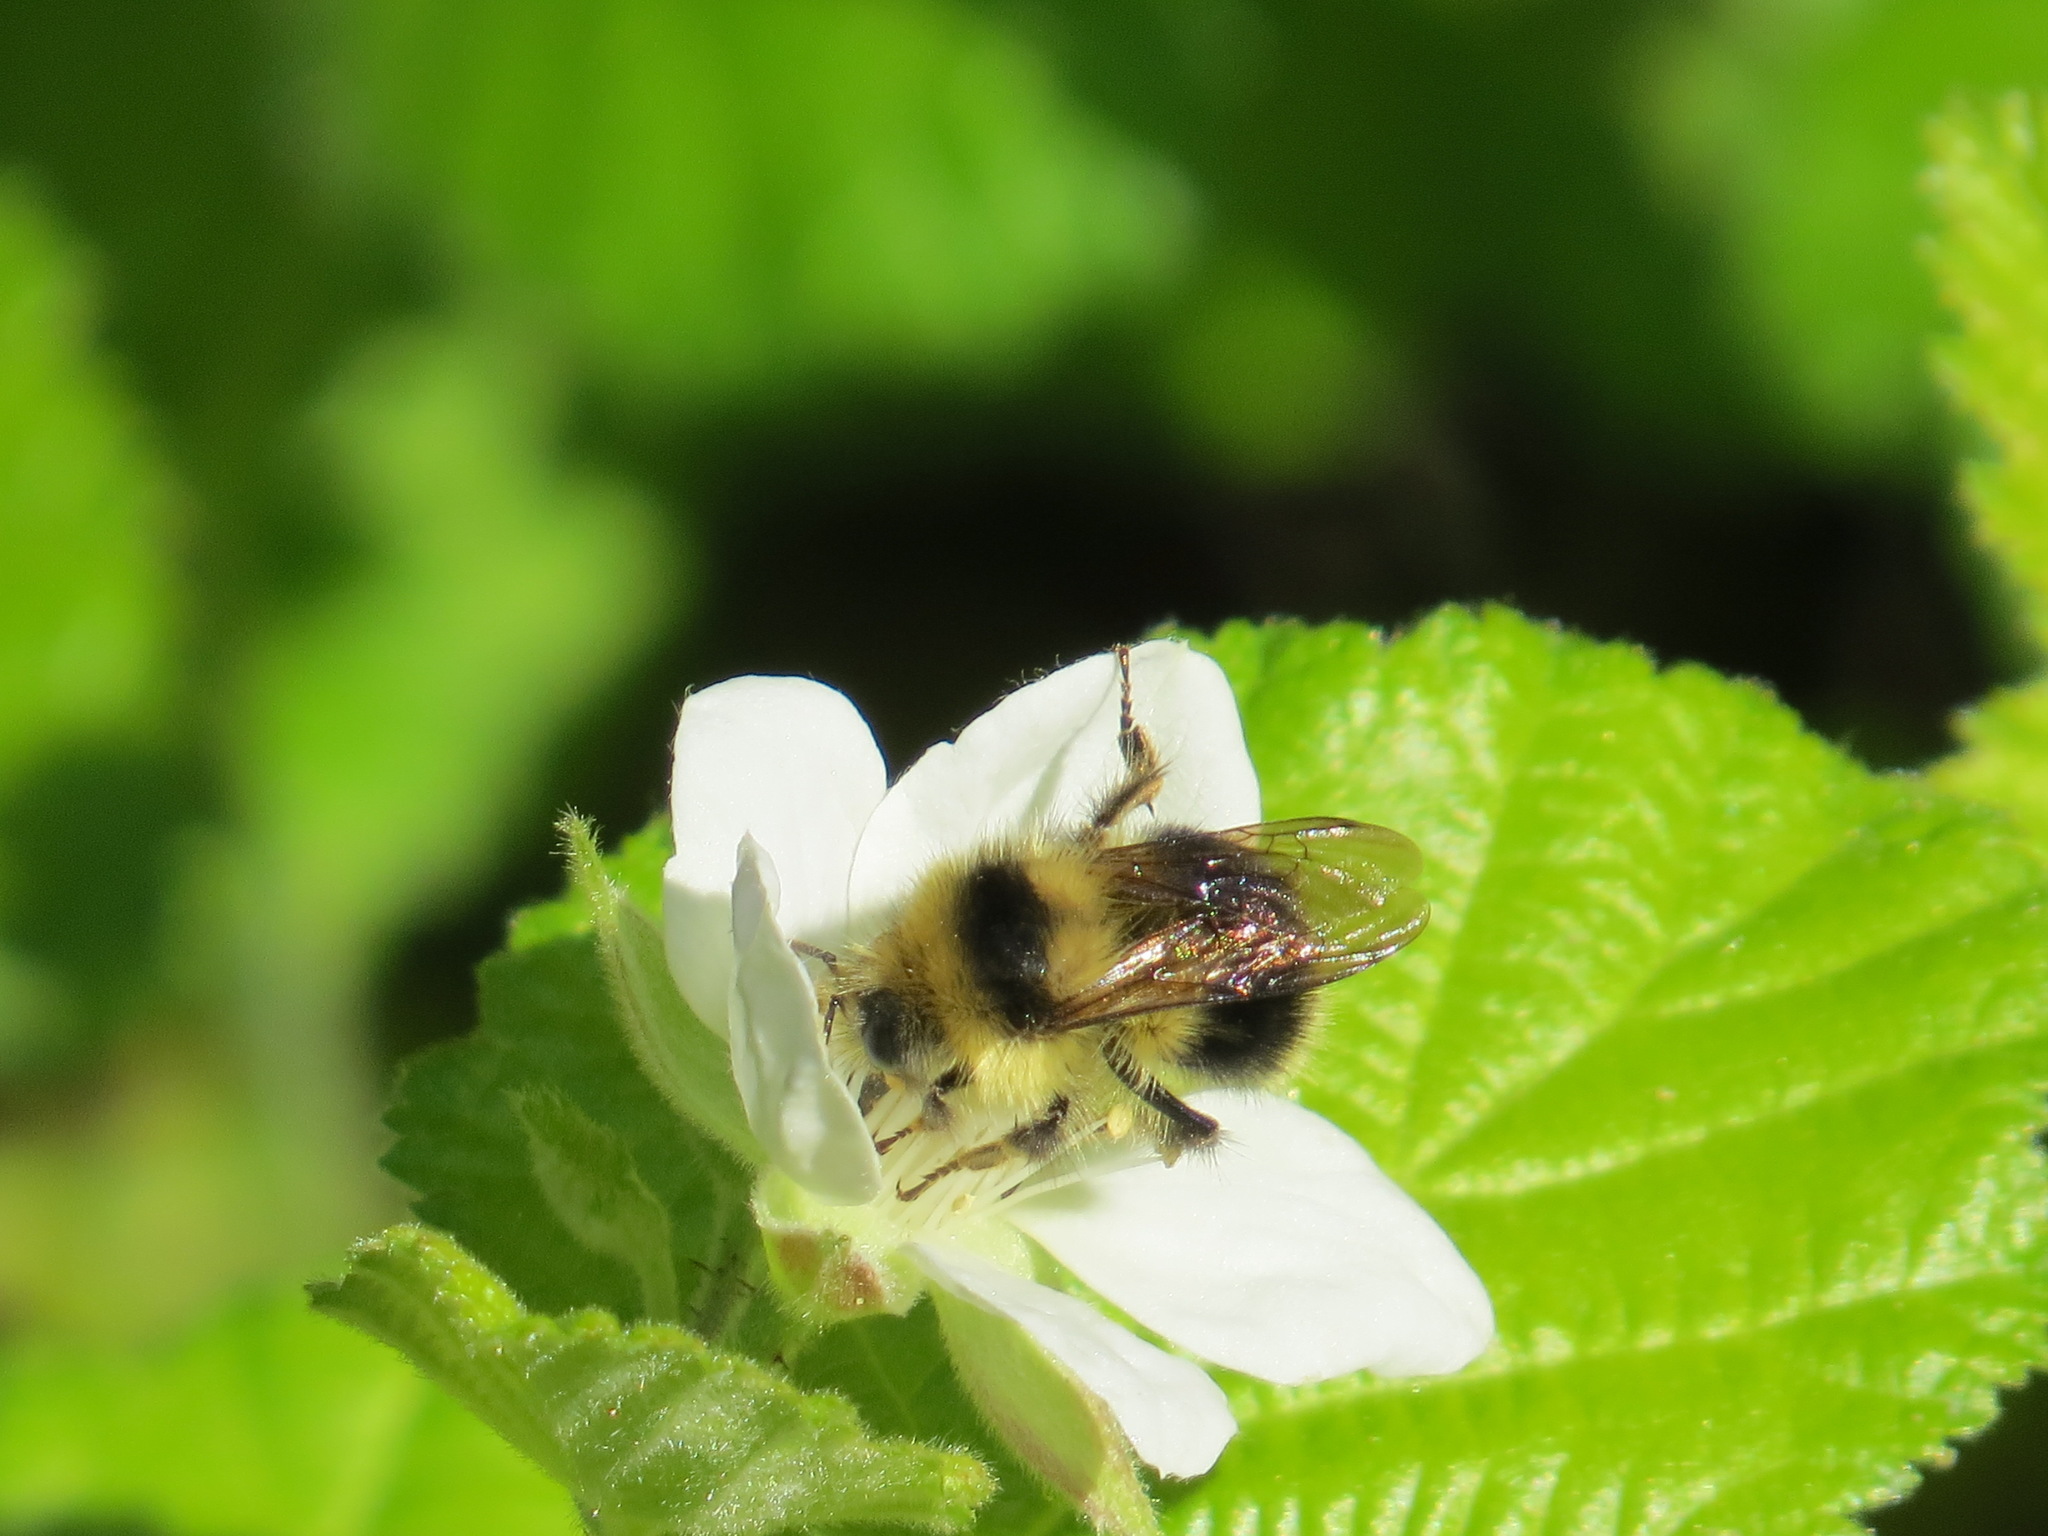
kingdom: Animalia
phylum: Arthropoda
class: Insecta
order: Hymenoptera
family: Apidae
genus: Bombus
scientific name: Bombus melanopygus
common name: Black tail bumble bee
